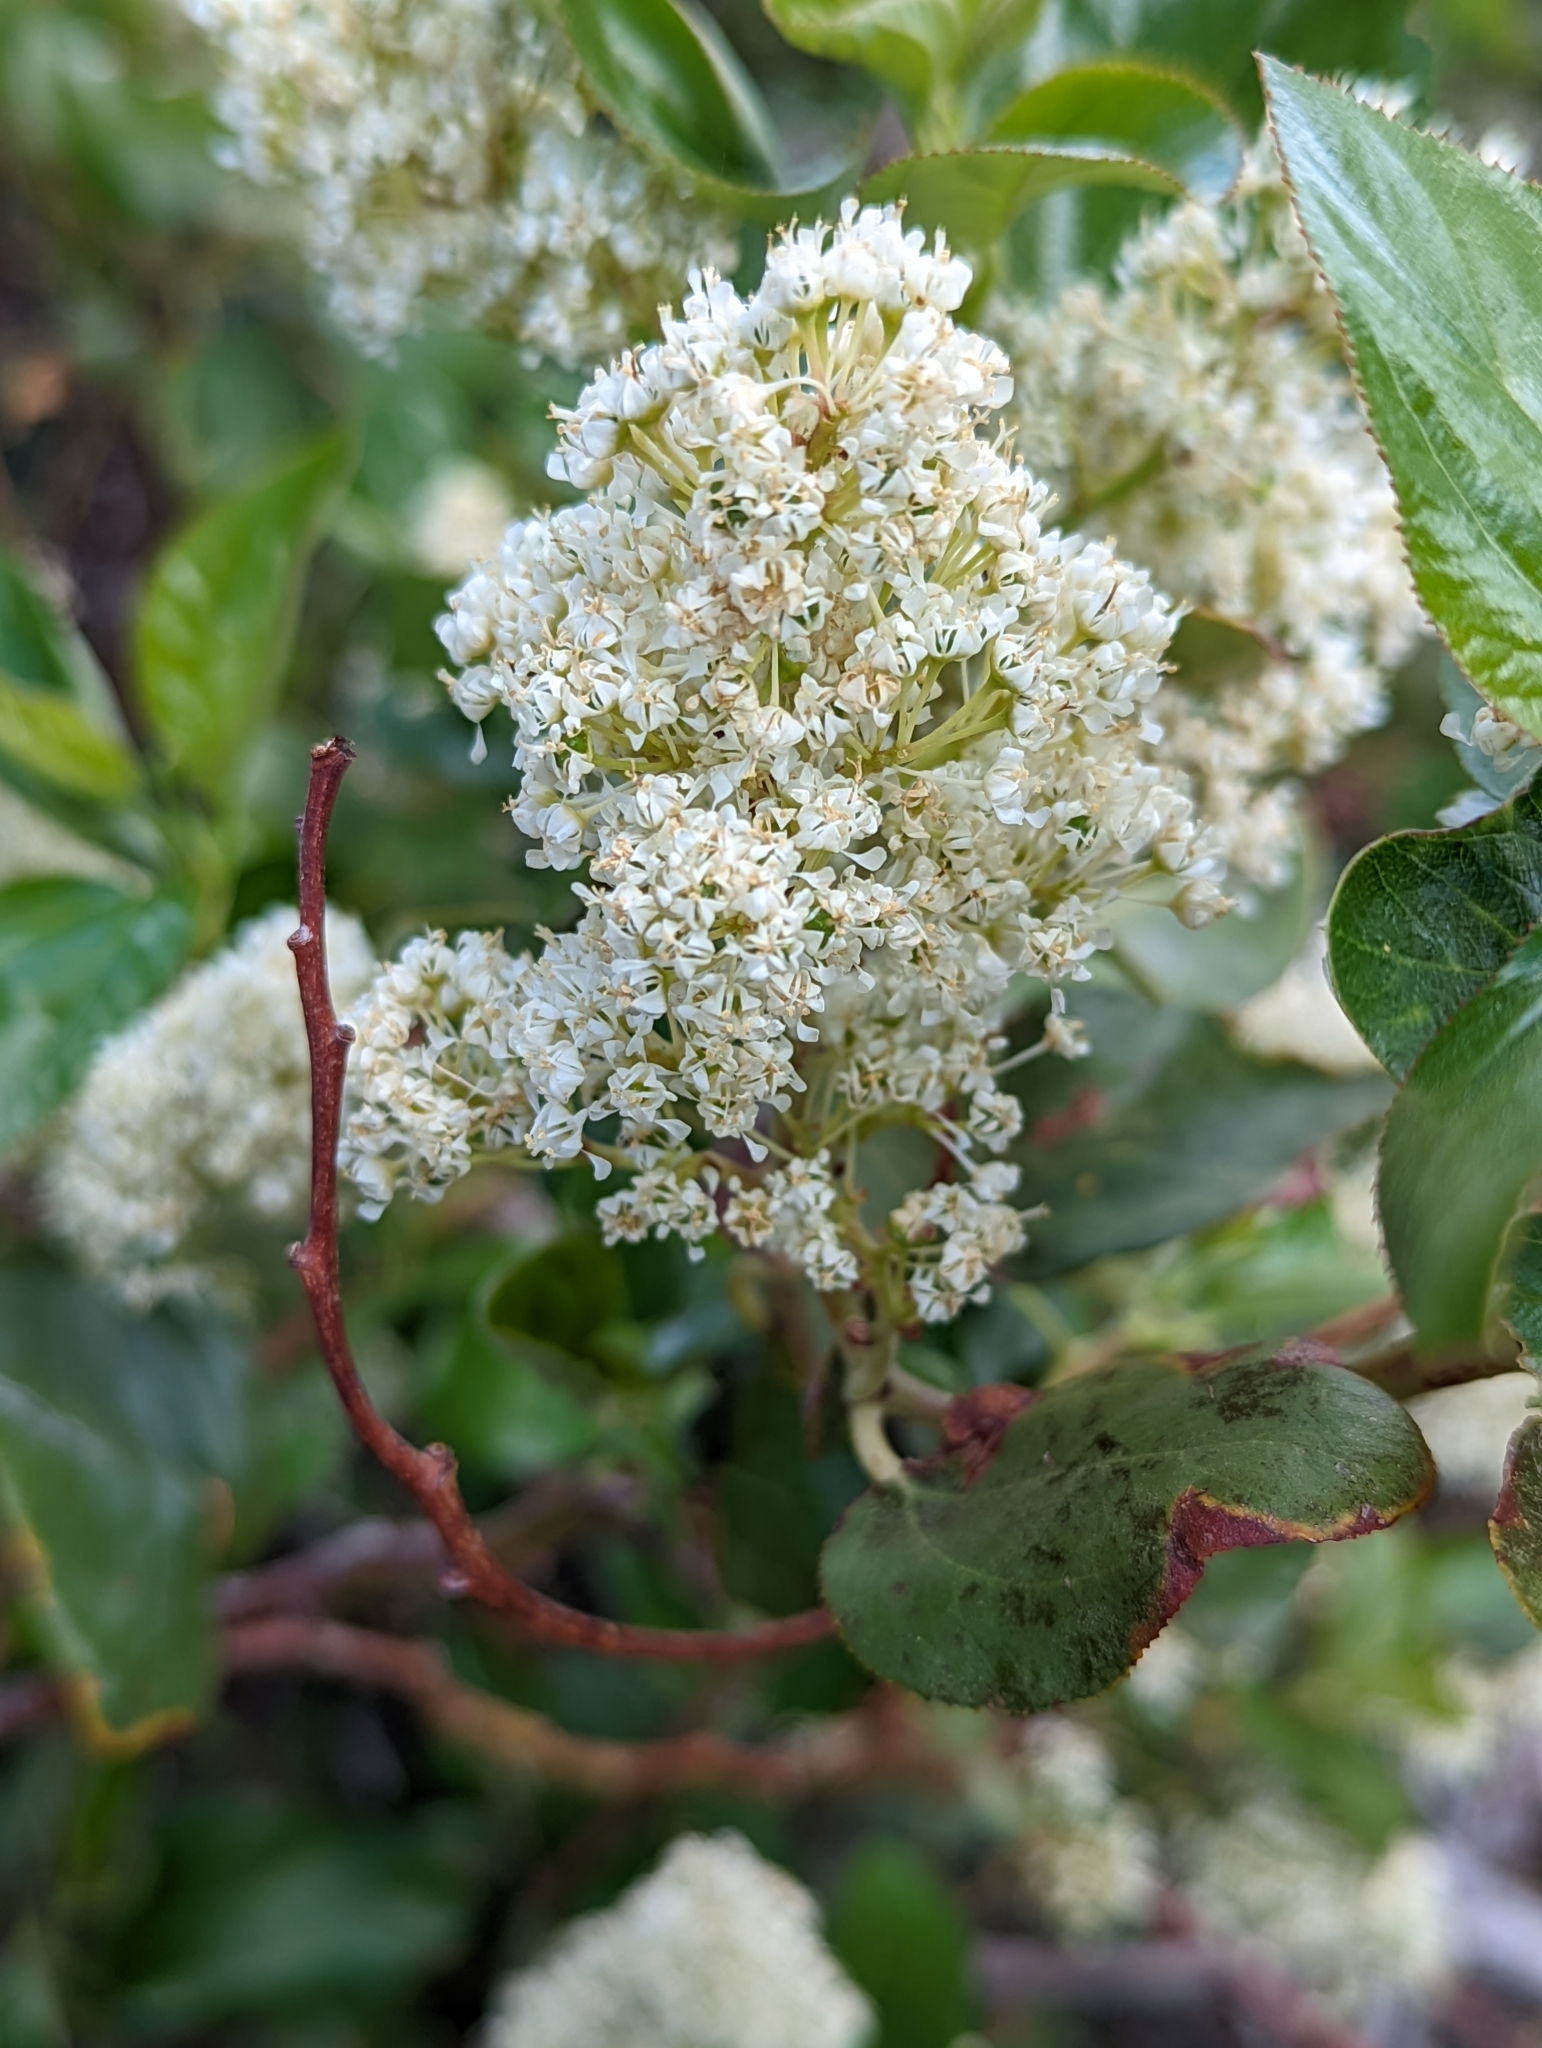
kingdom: Plantae
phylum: Tracheophyta
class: Magnoliopsida
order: Rosales
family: Rhamnaceae
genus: Ceanothus
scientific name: Ceanothus velutinus
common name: Snowbrush
